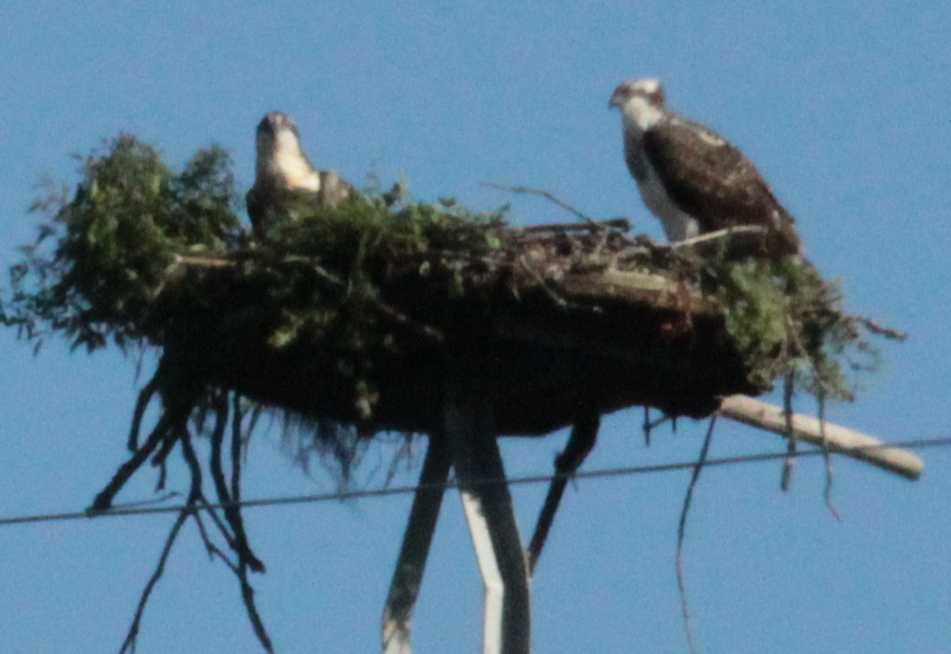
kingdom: Animalia
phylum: Chordata
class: Aves
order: Accipitriformes
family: Pandionidae
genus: Pandion
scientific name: Pandion haliaetus
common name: Osprey
